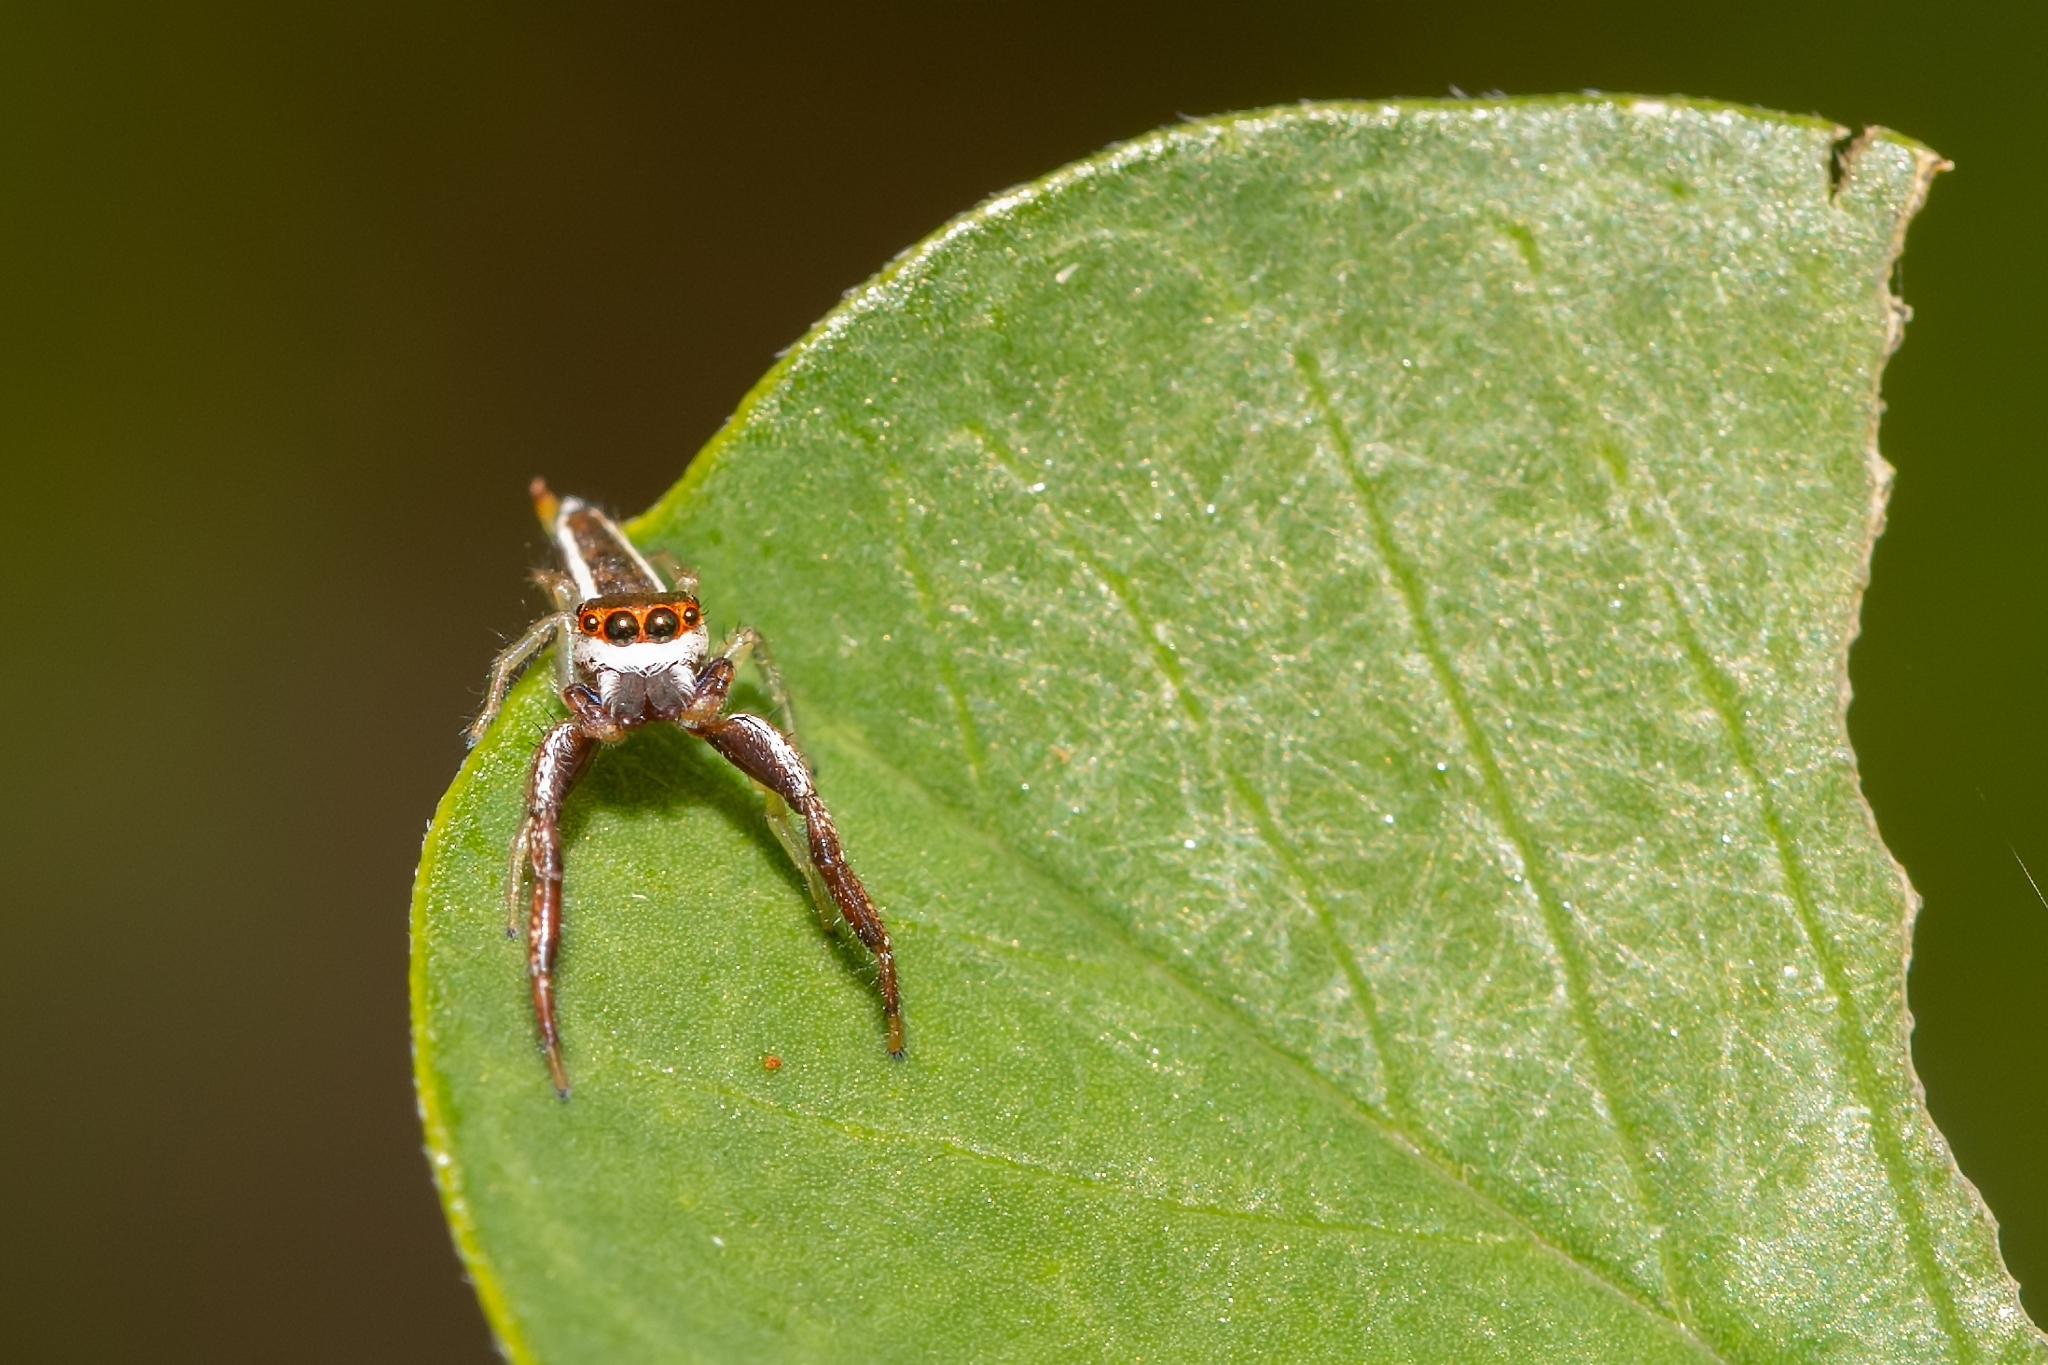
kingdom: Animalia
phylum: Arthropoda
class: Arachnida
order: Araneae
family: Salticidae
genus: Hentzia
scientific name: Hentzia palmarum
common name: Common hentz jumping spider
